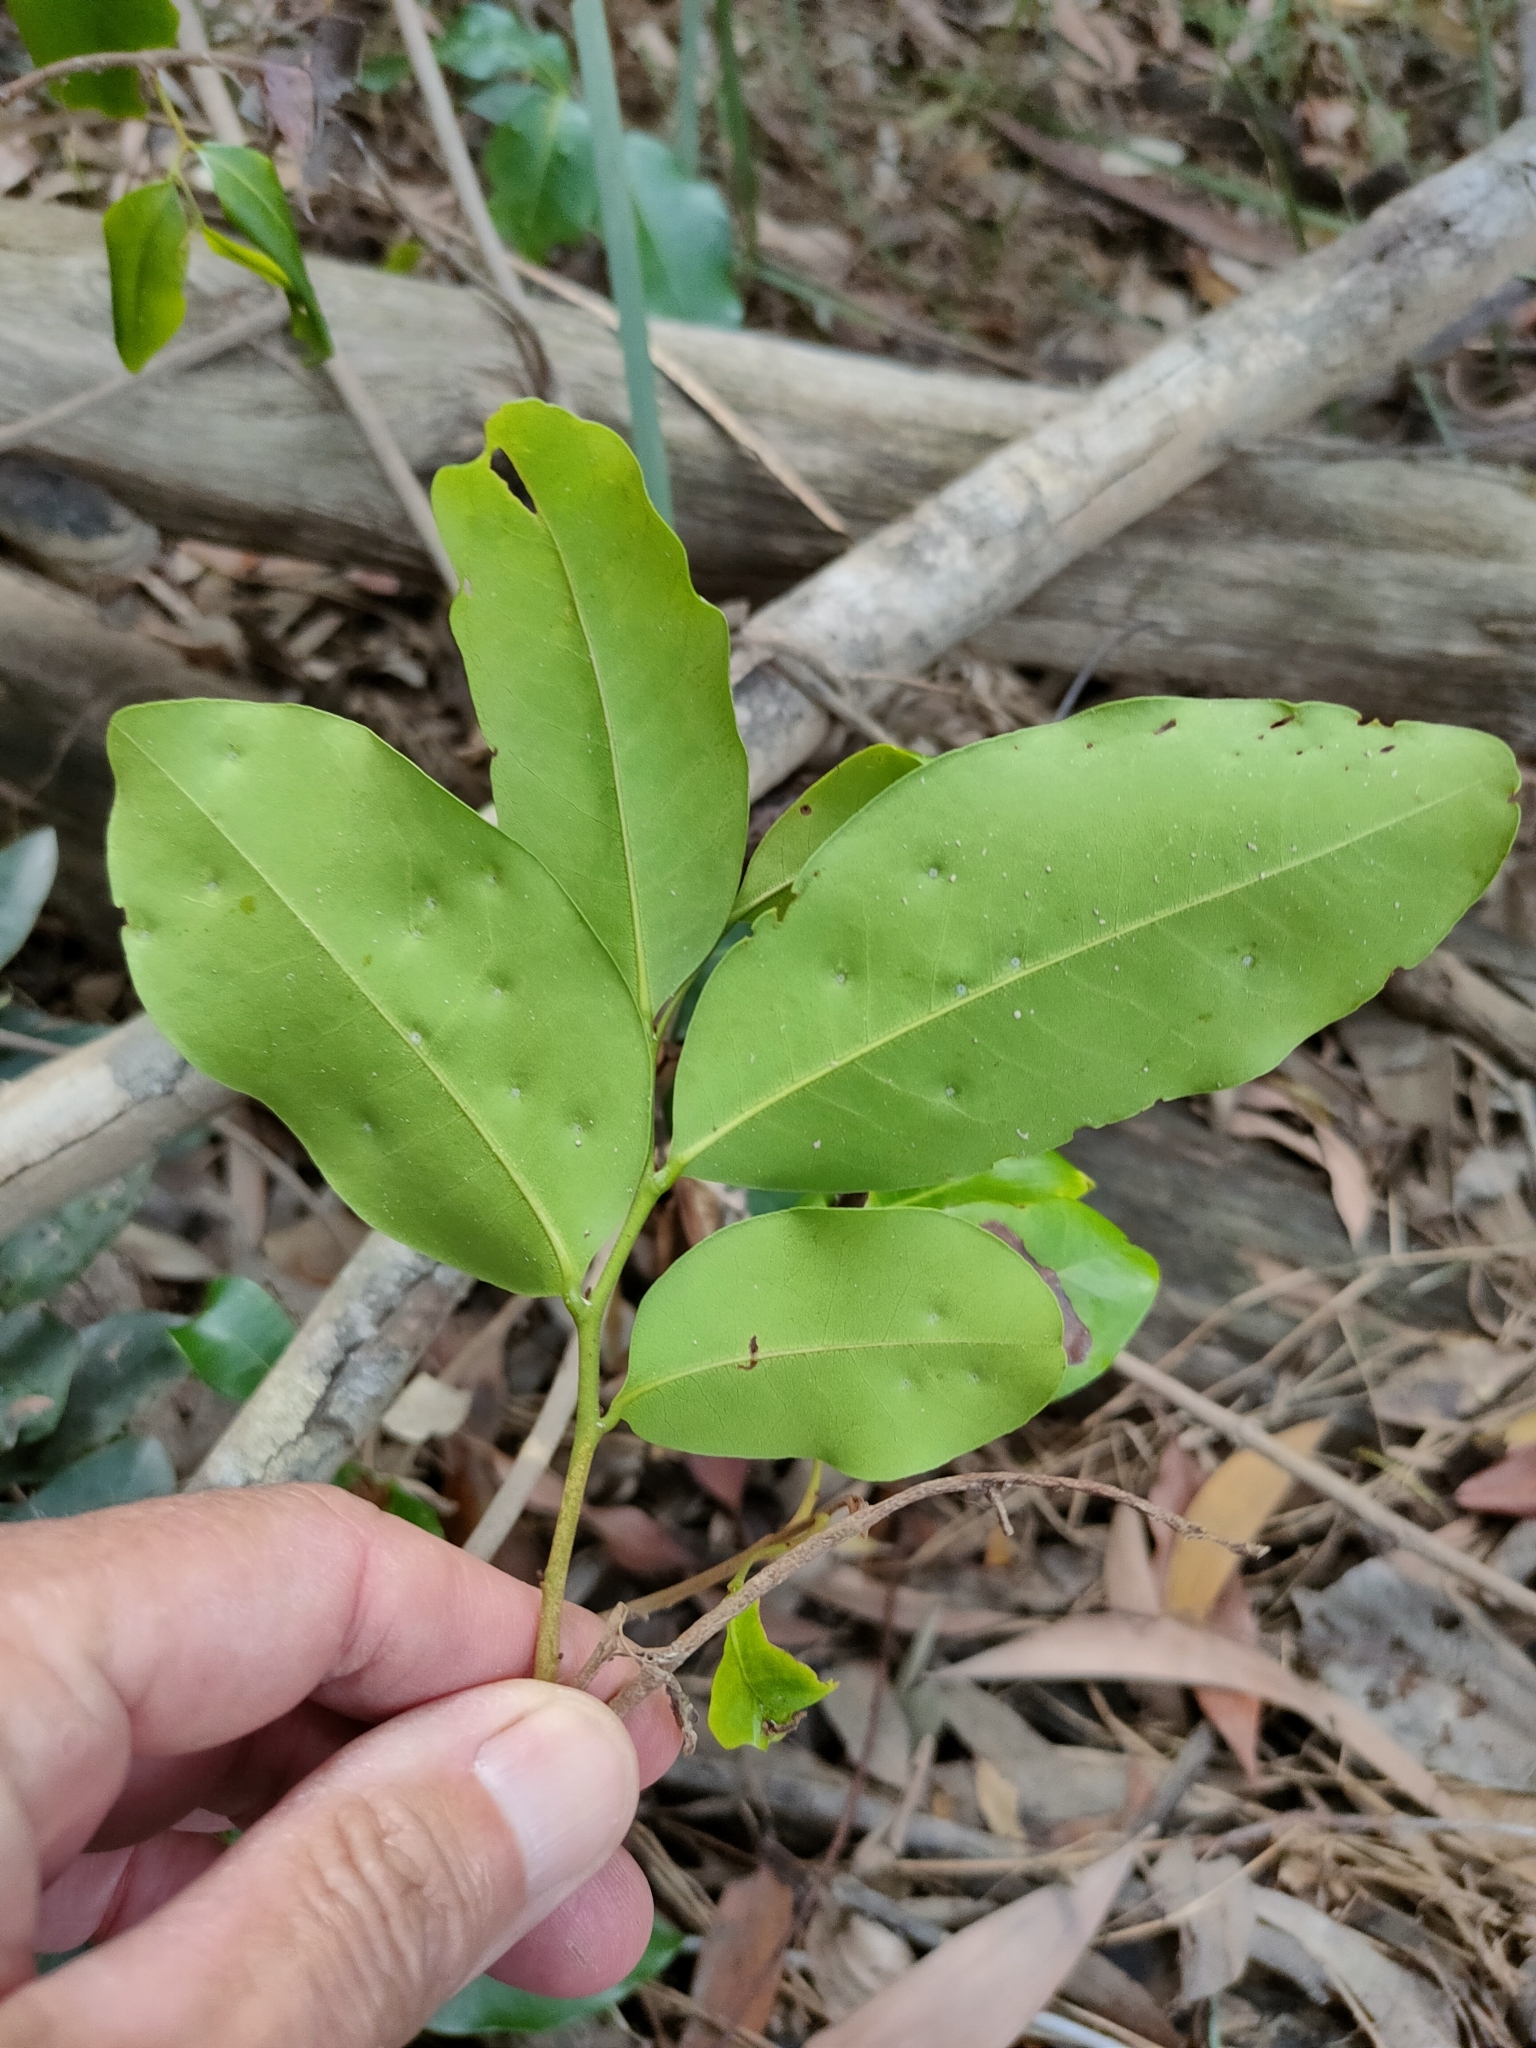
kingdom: Plantae
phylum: Tracheophyta
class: Magnoliopsida
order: Magnoliales
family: Annonaceae
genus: Uvaria
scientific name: Uvaria leichhardtii
